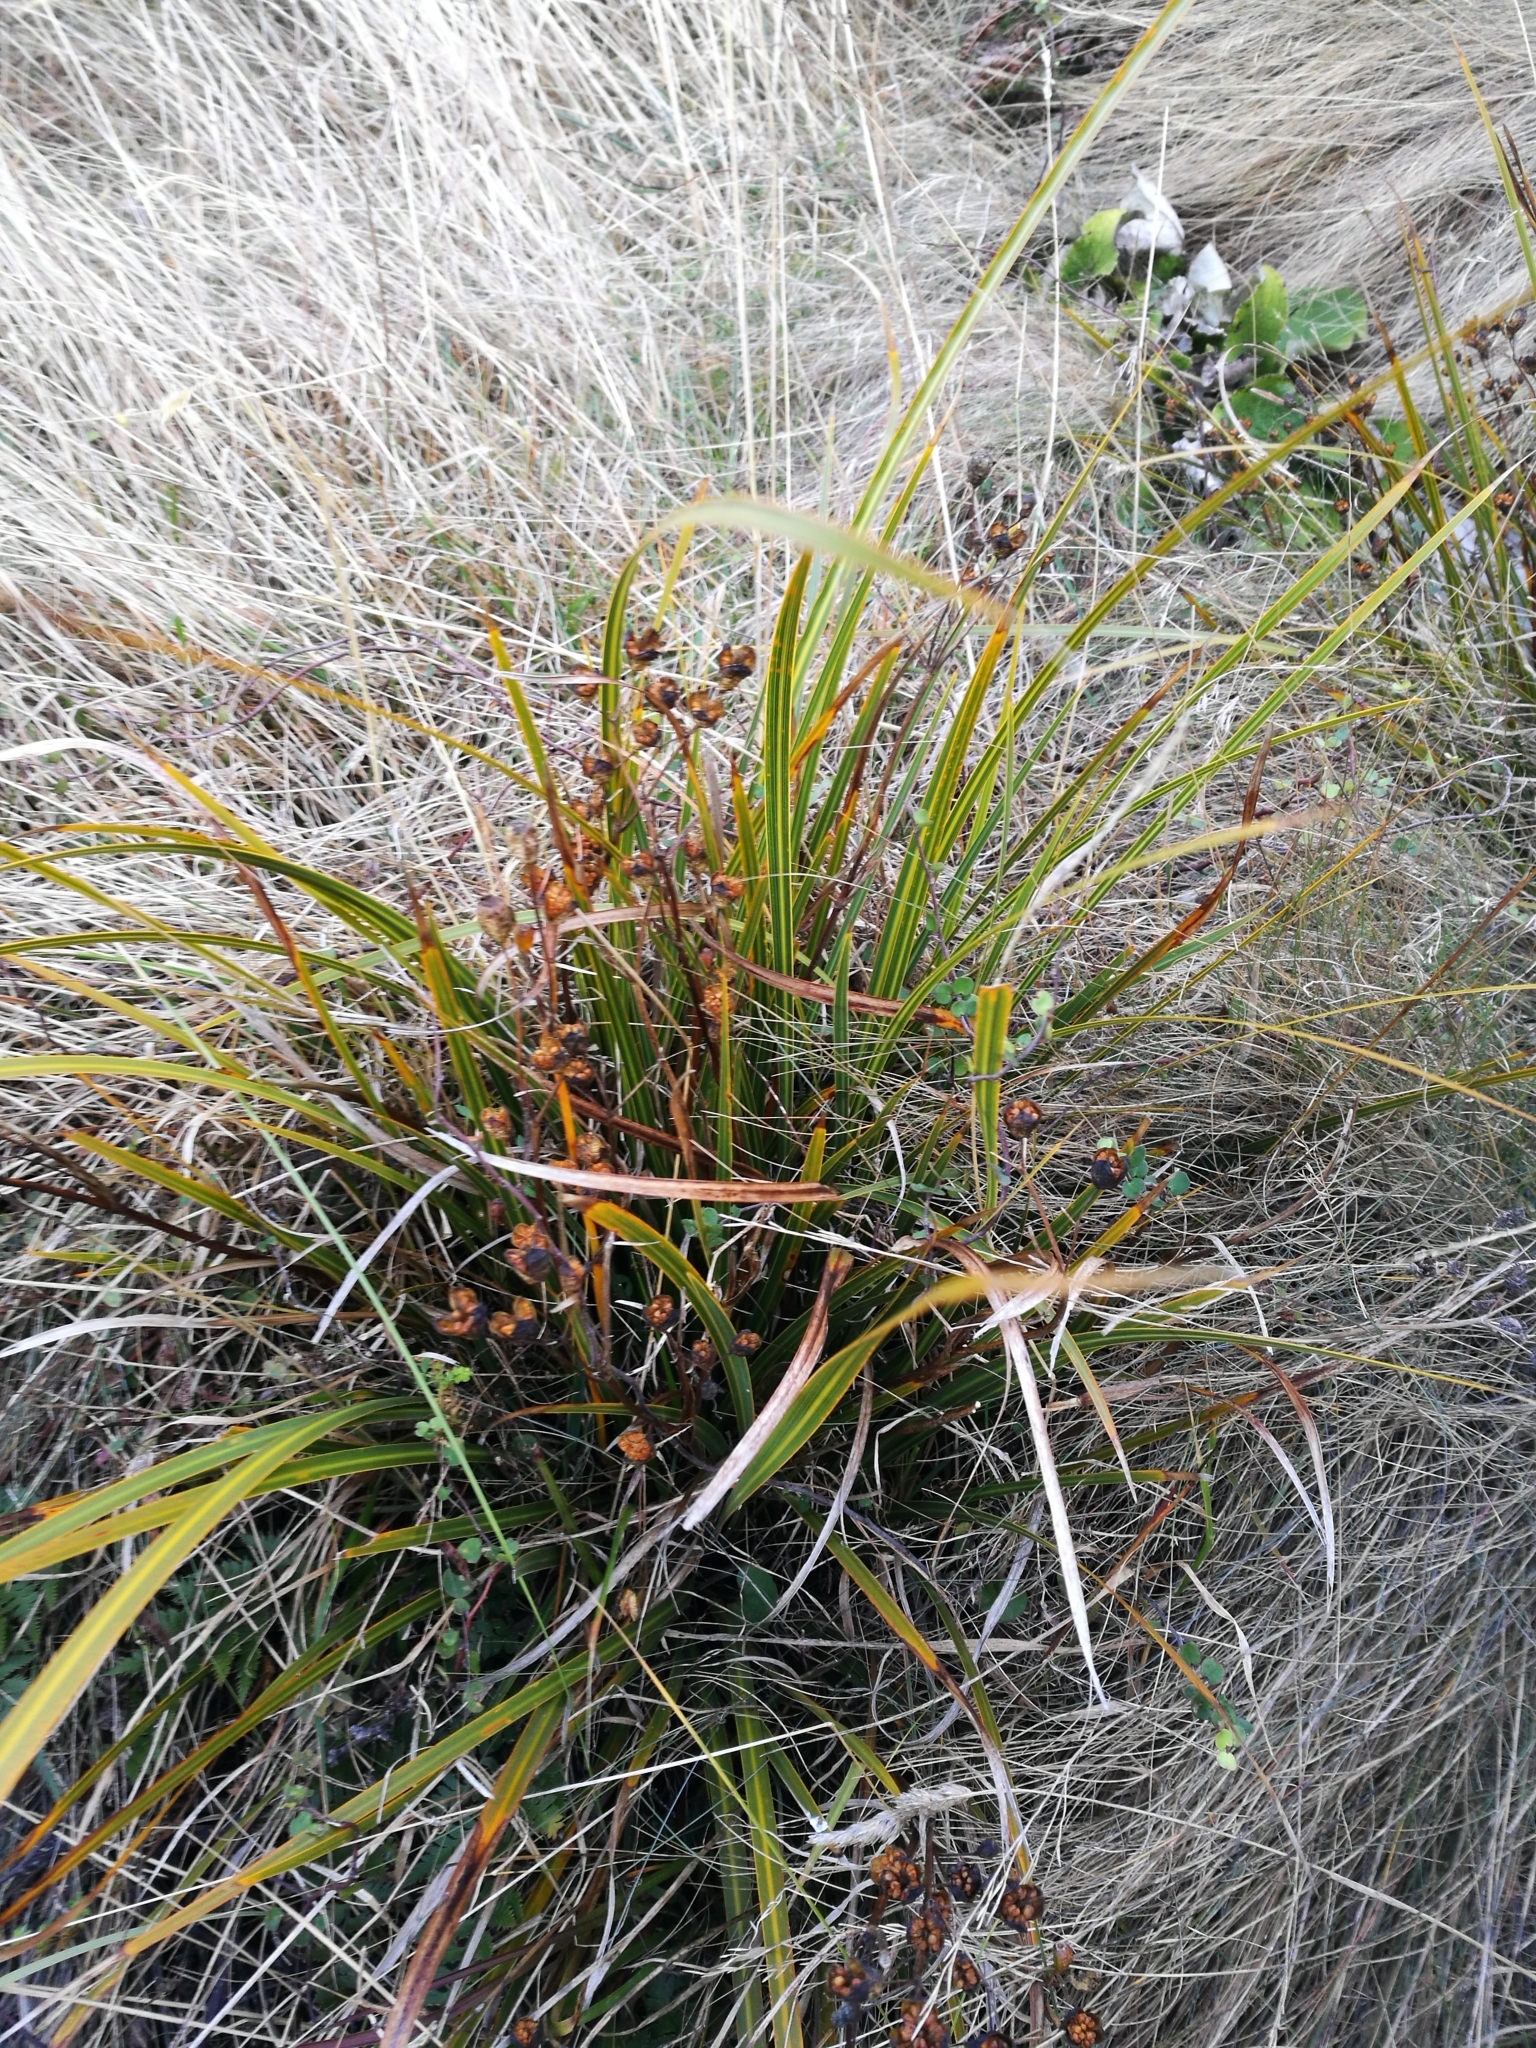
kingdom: Plantae
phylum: Tracheophyta
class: Liliopsida
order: Asparagales
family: Iridaceae
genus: Libertia
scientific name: Libertia ixioides
